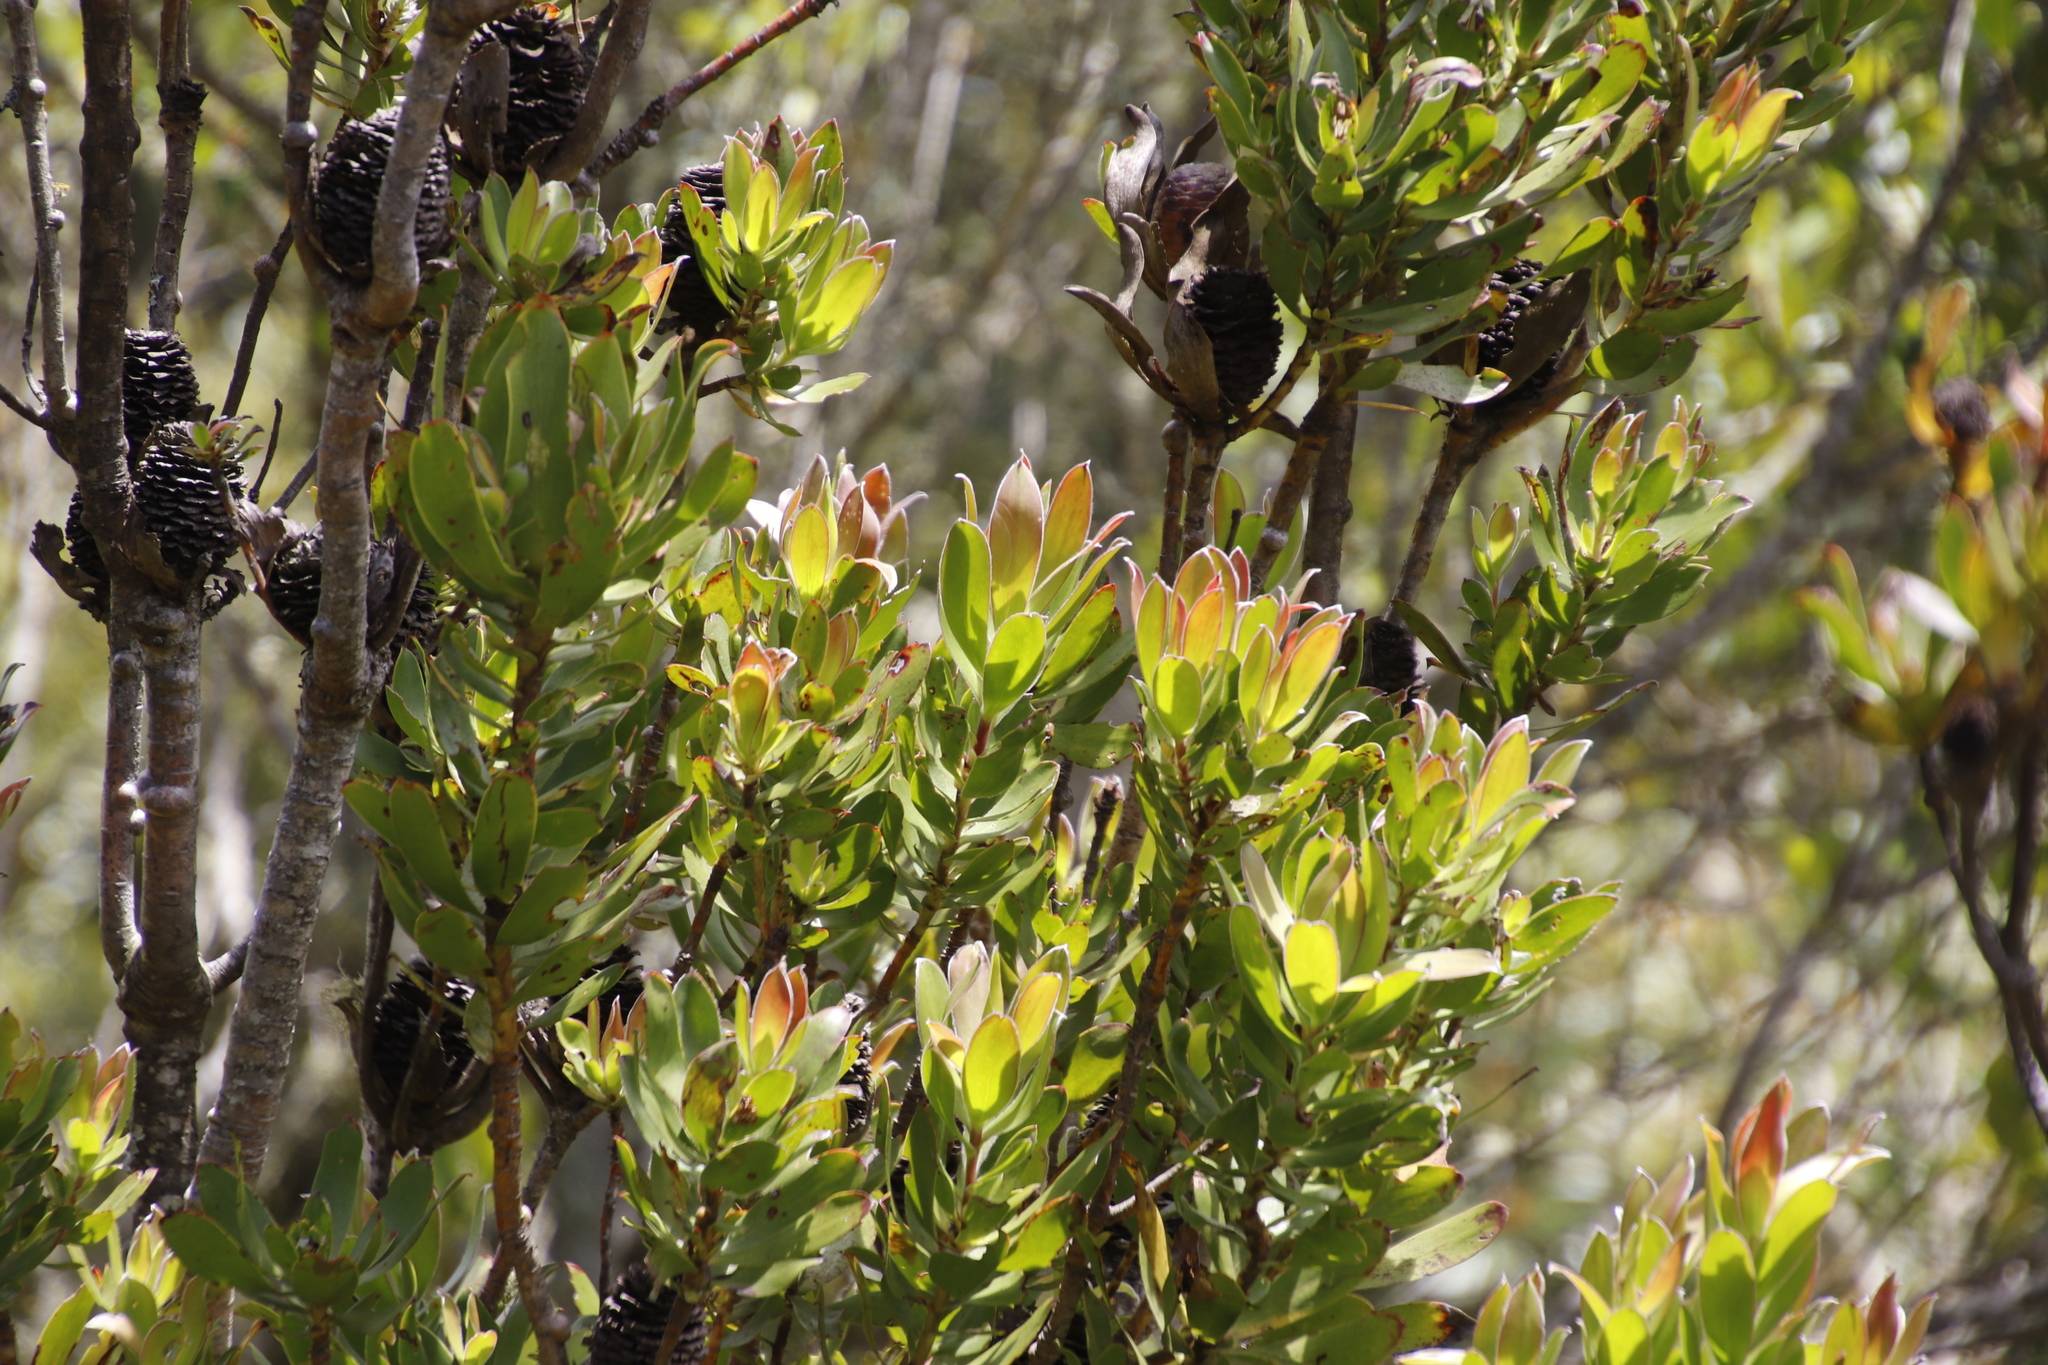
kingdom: Plantae
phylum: Tracheophyta
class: Magnoliopsida
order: Proteales
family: Proteaceae
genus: Leucadendron
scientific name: Leucadendron strobilinum
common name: Mountain rose
